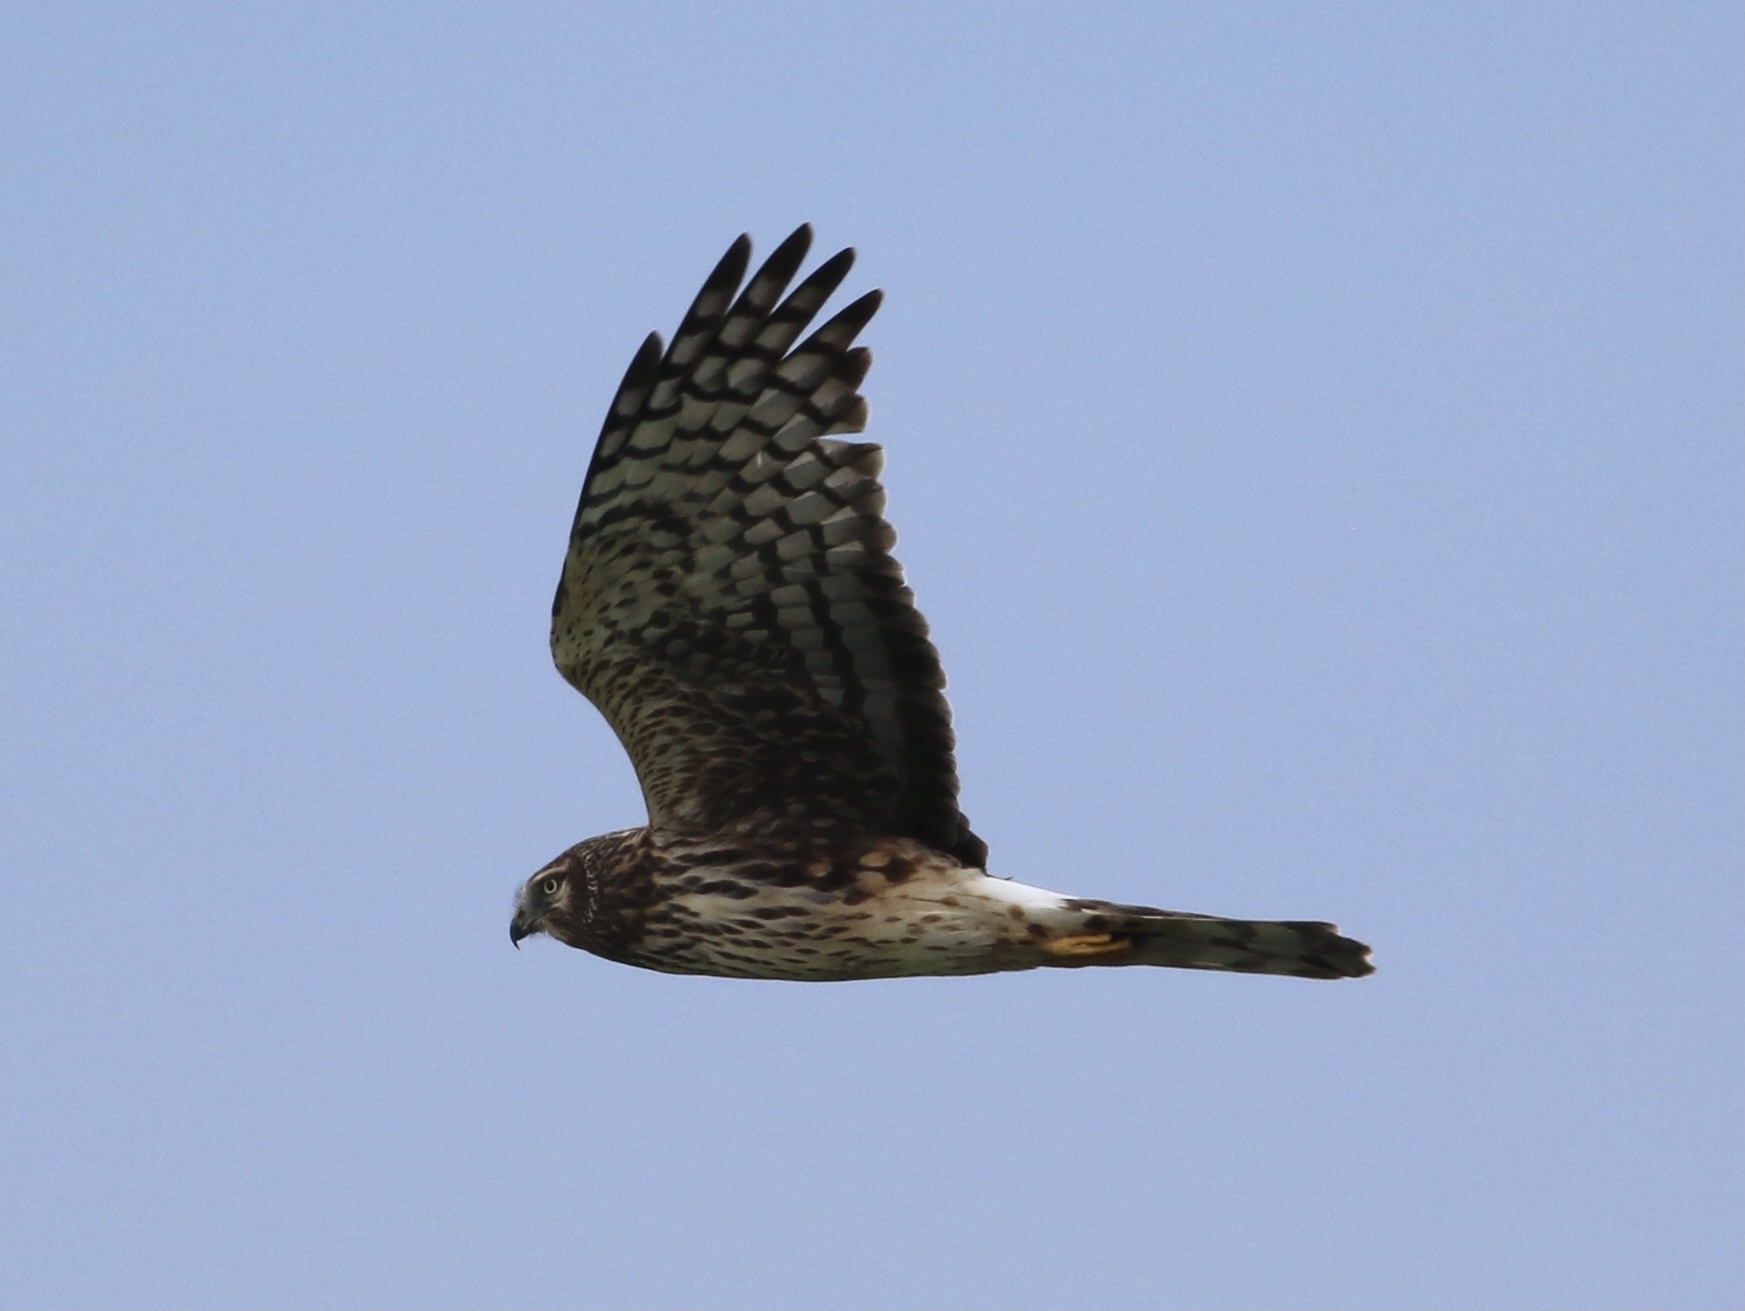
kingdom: Animalia
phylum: Chordata
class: Aves
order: Accipitriformes
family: Accipitridae
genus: Circus
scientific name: Circus cyaneus
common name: Hen harrier
